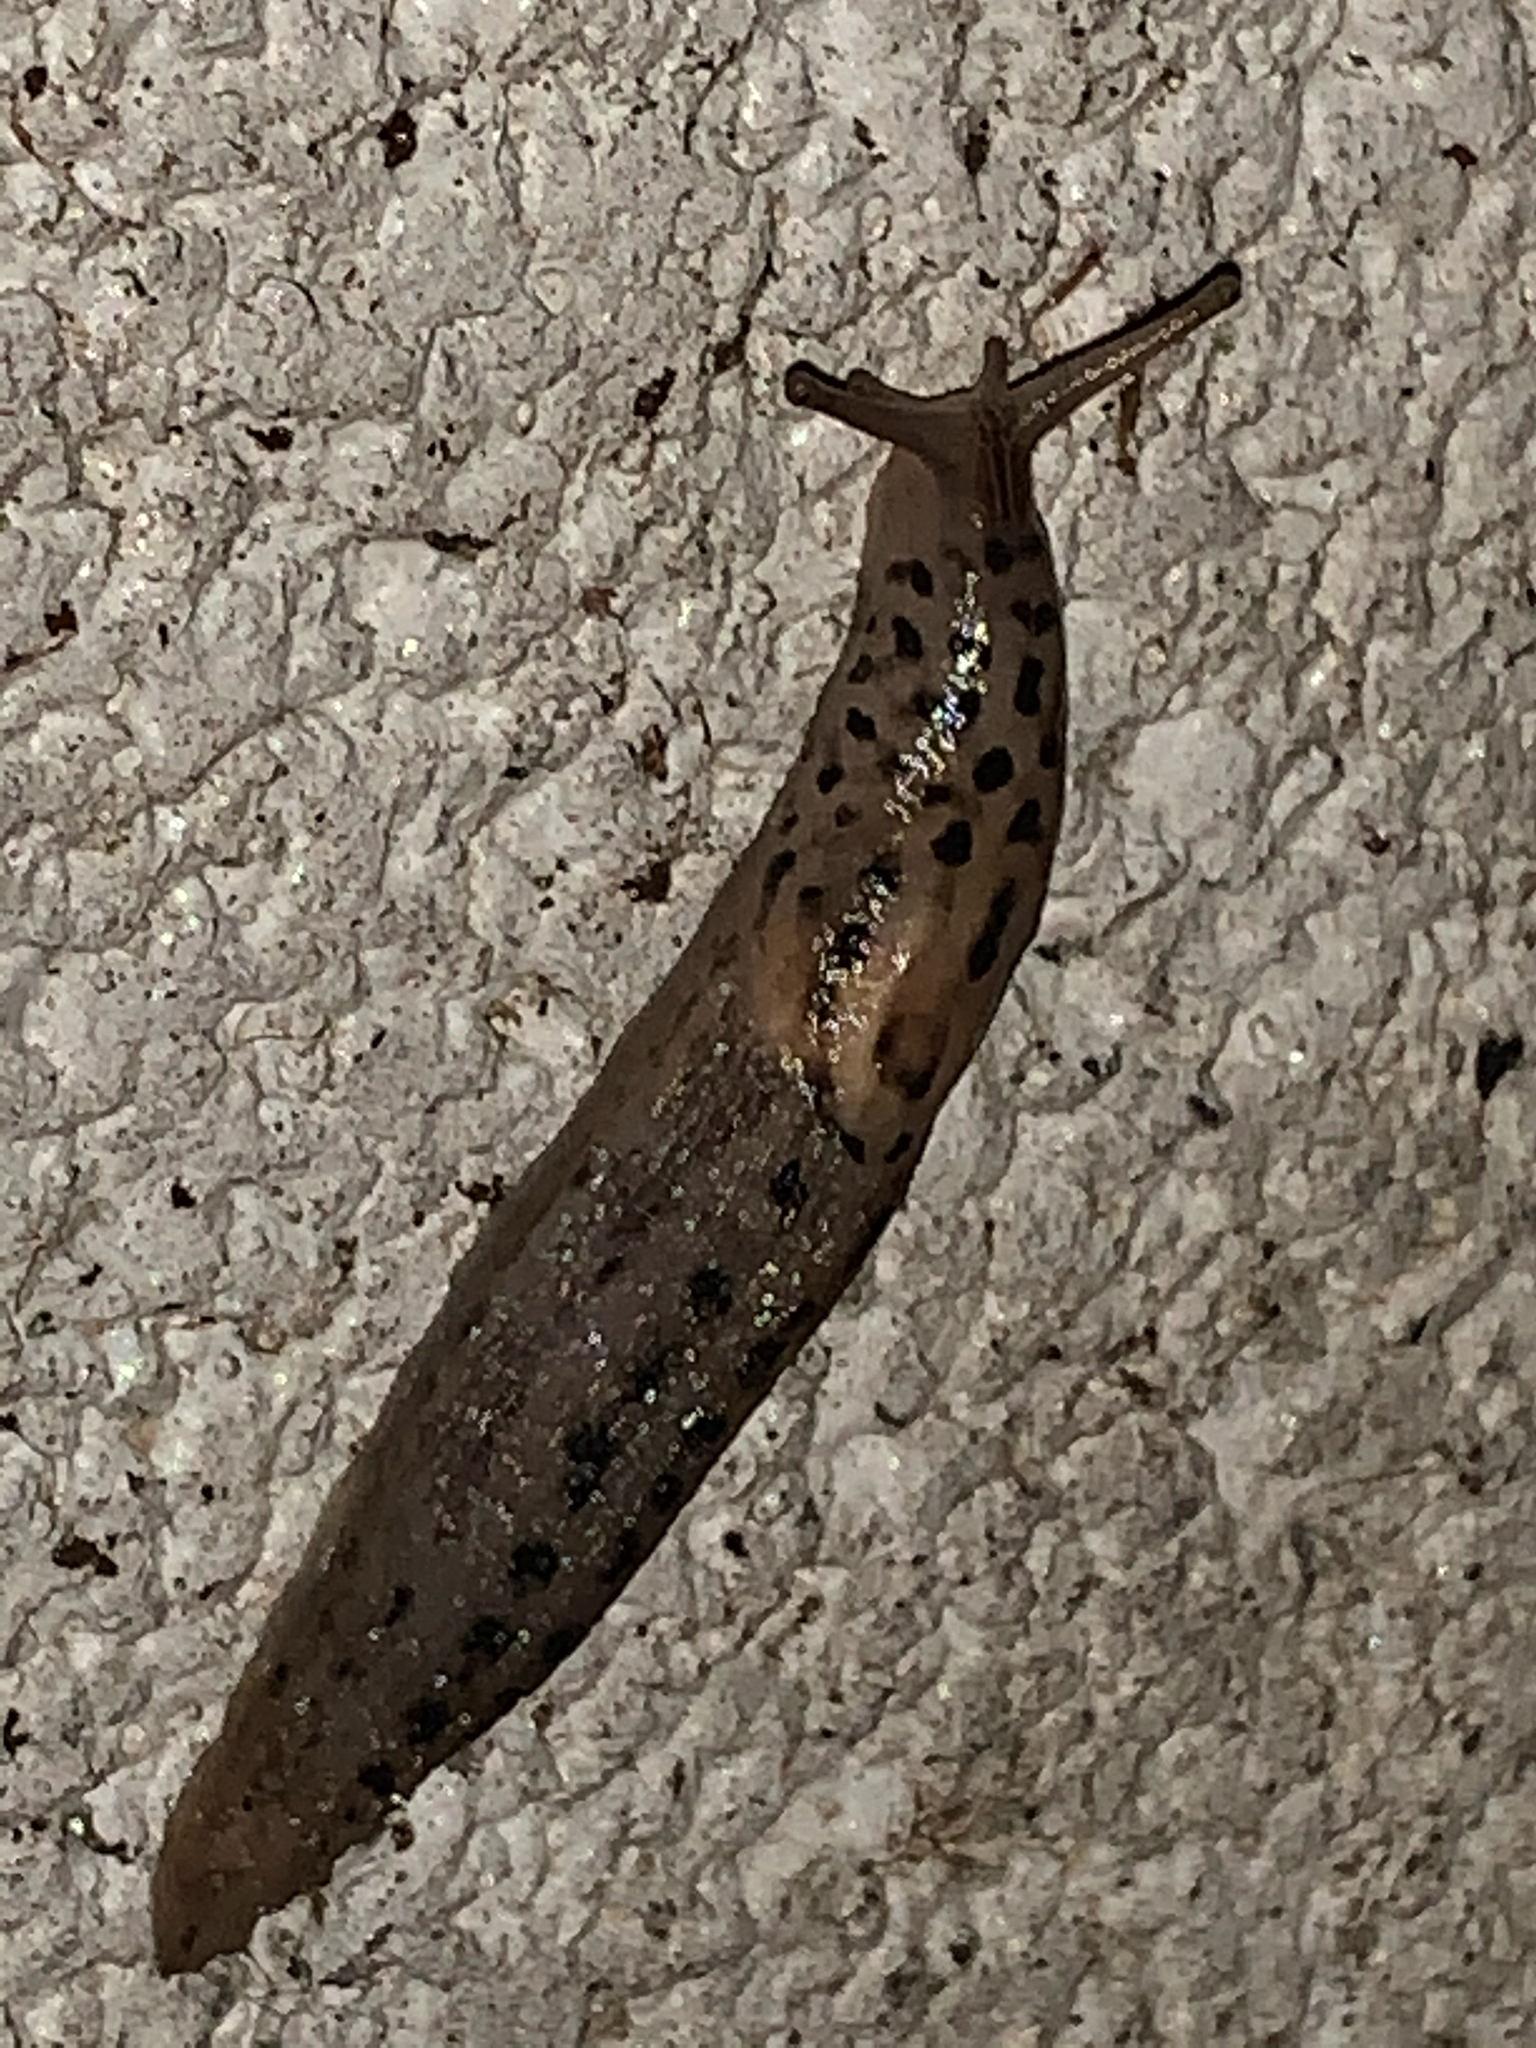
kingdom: Animalia
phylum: Mollusca
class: Gastropoda
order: Stylommatophora
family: Limacidae
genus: Limax
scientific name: Limax maximus
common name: Great grey slug
